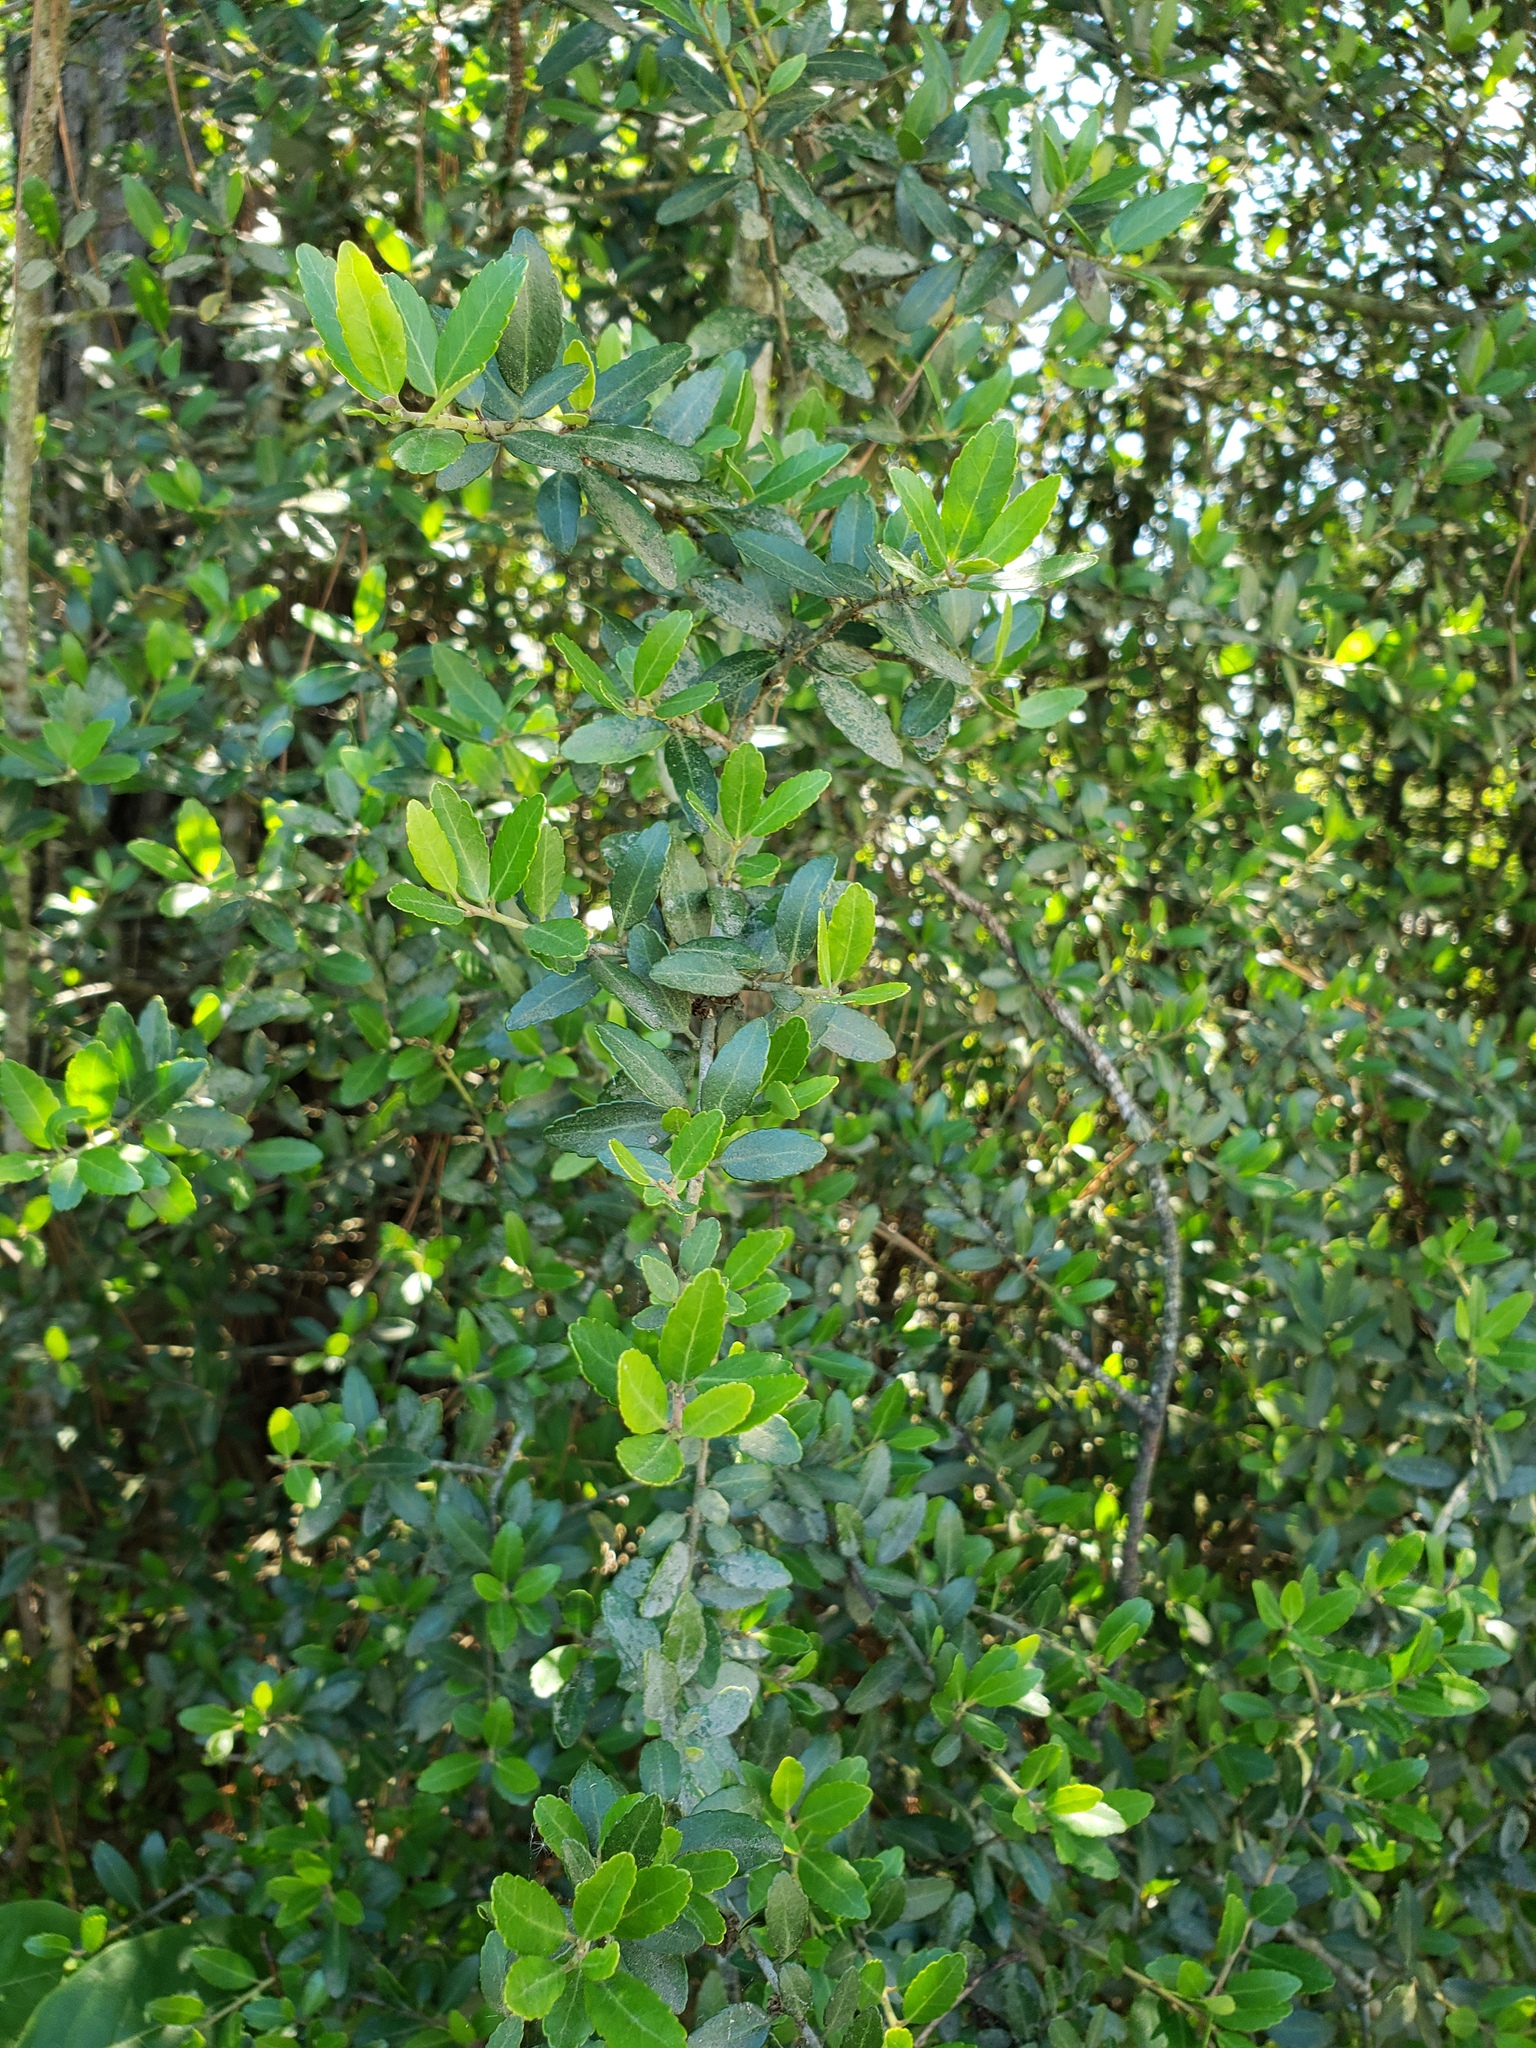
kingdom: Plantae
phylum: Tracheophyta
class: Magnoliopsida
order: Aquifoliales
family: Aquifoliaceae
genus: Ilex
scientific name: Ilex vomitoria
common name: Yaupon holly
